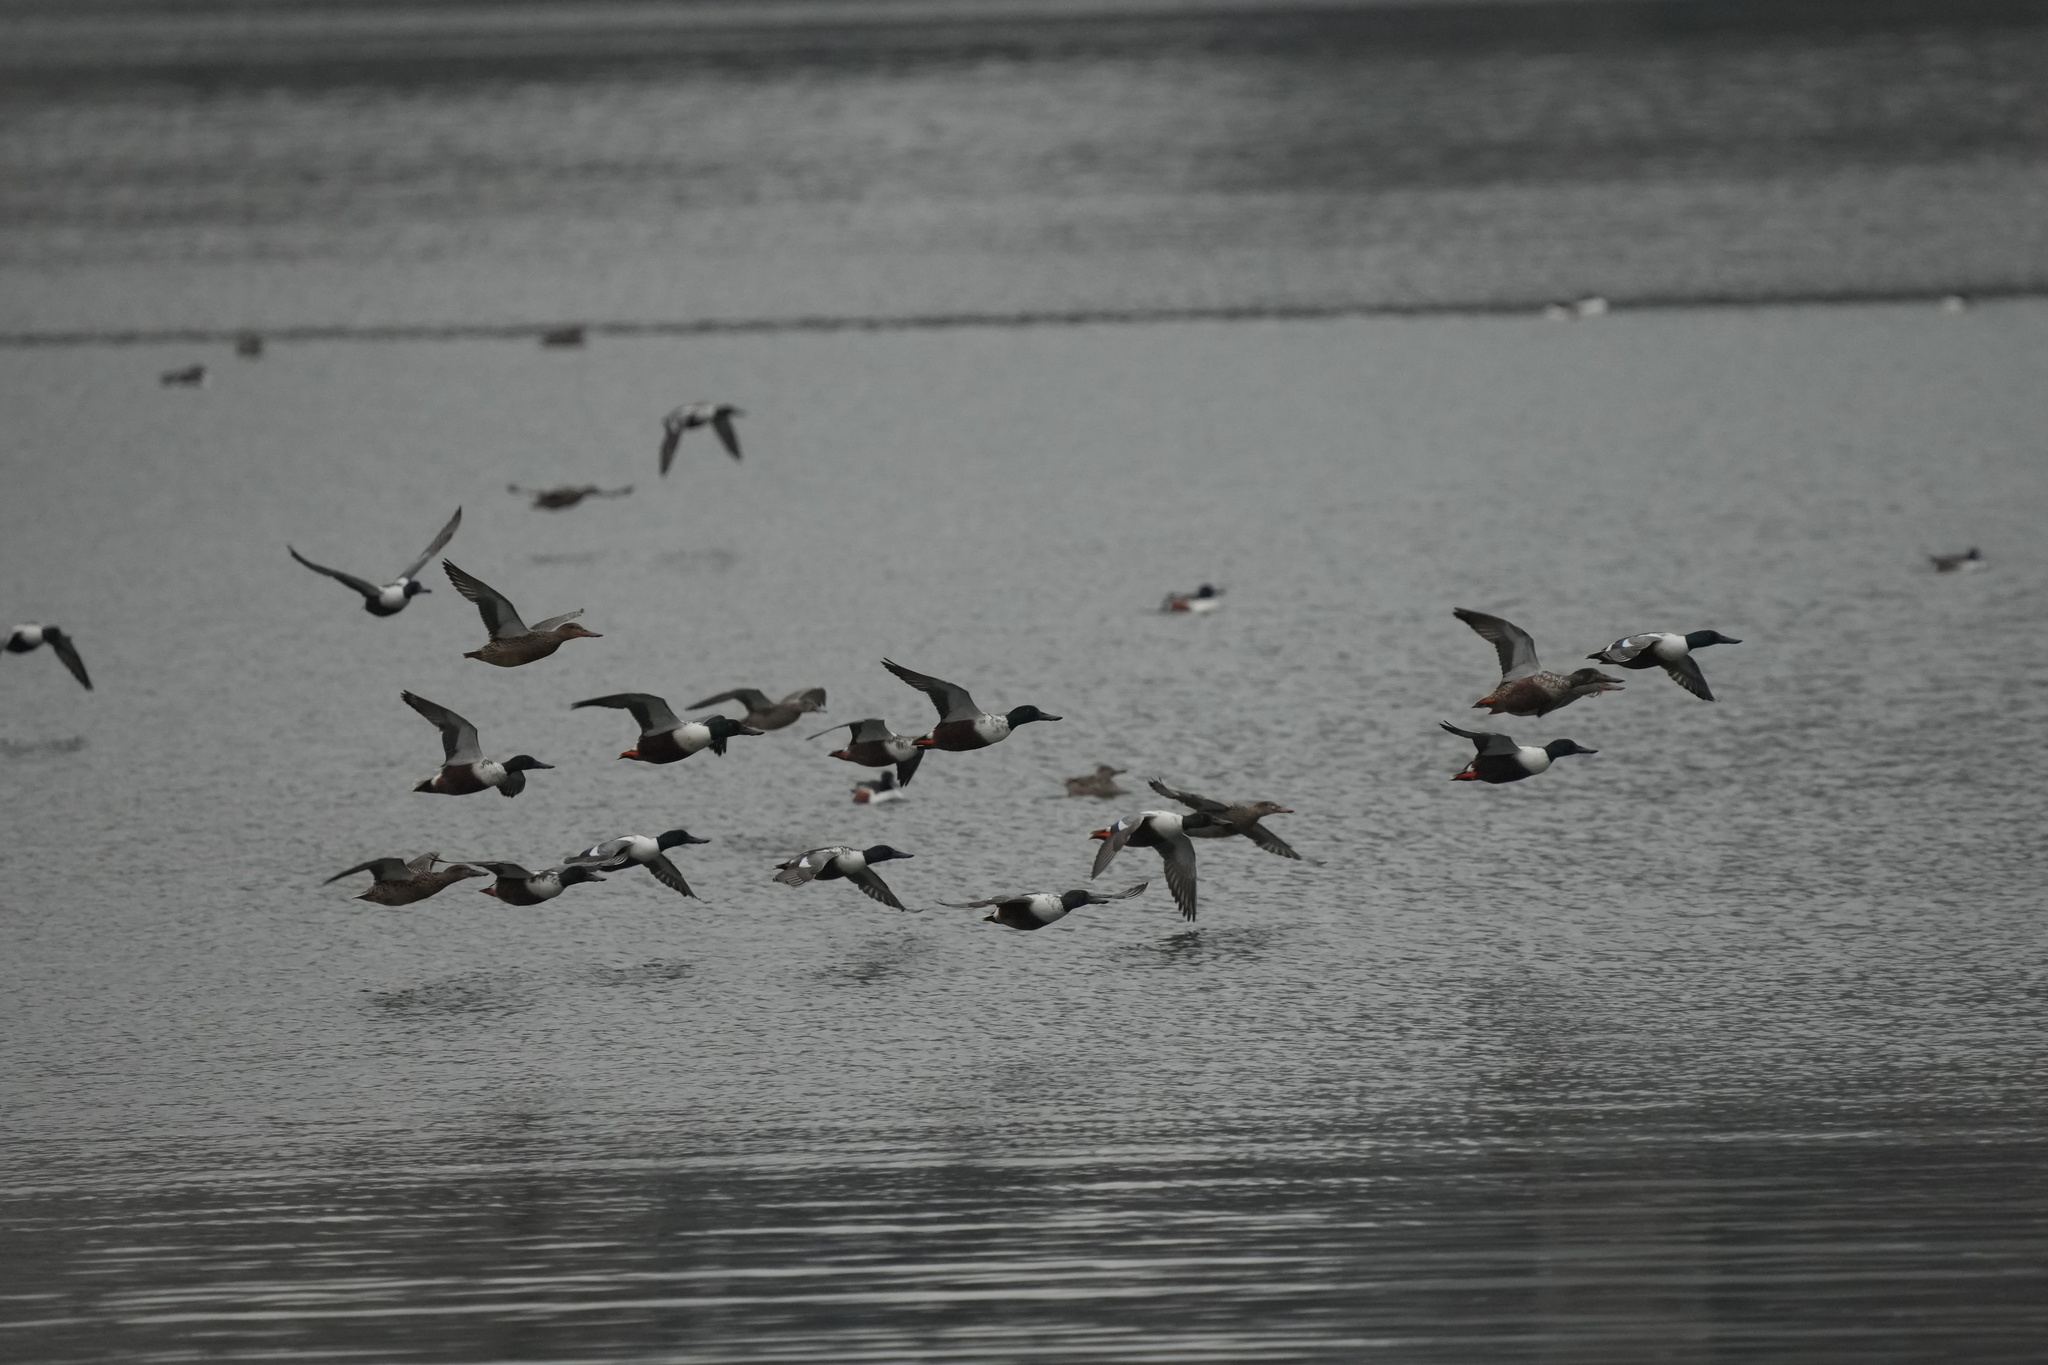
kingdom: Animalia
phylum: Chordata
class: Aves
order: Anseriformes
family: Anatidae
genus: Spatula
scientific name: Spatula clypeata
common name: Northern shoveler
